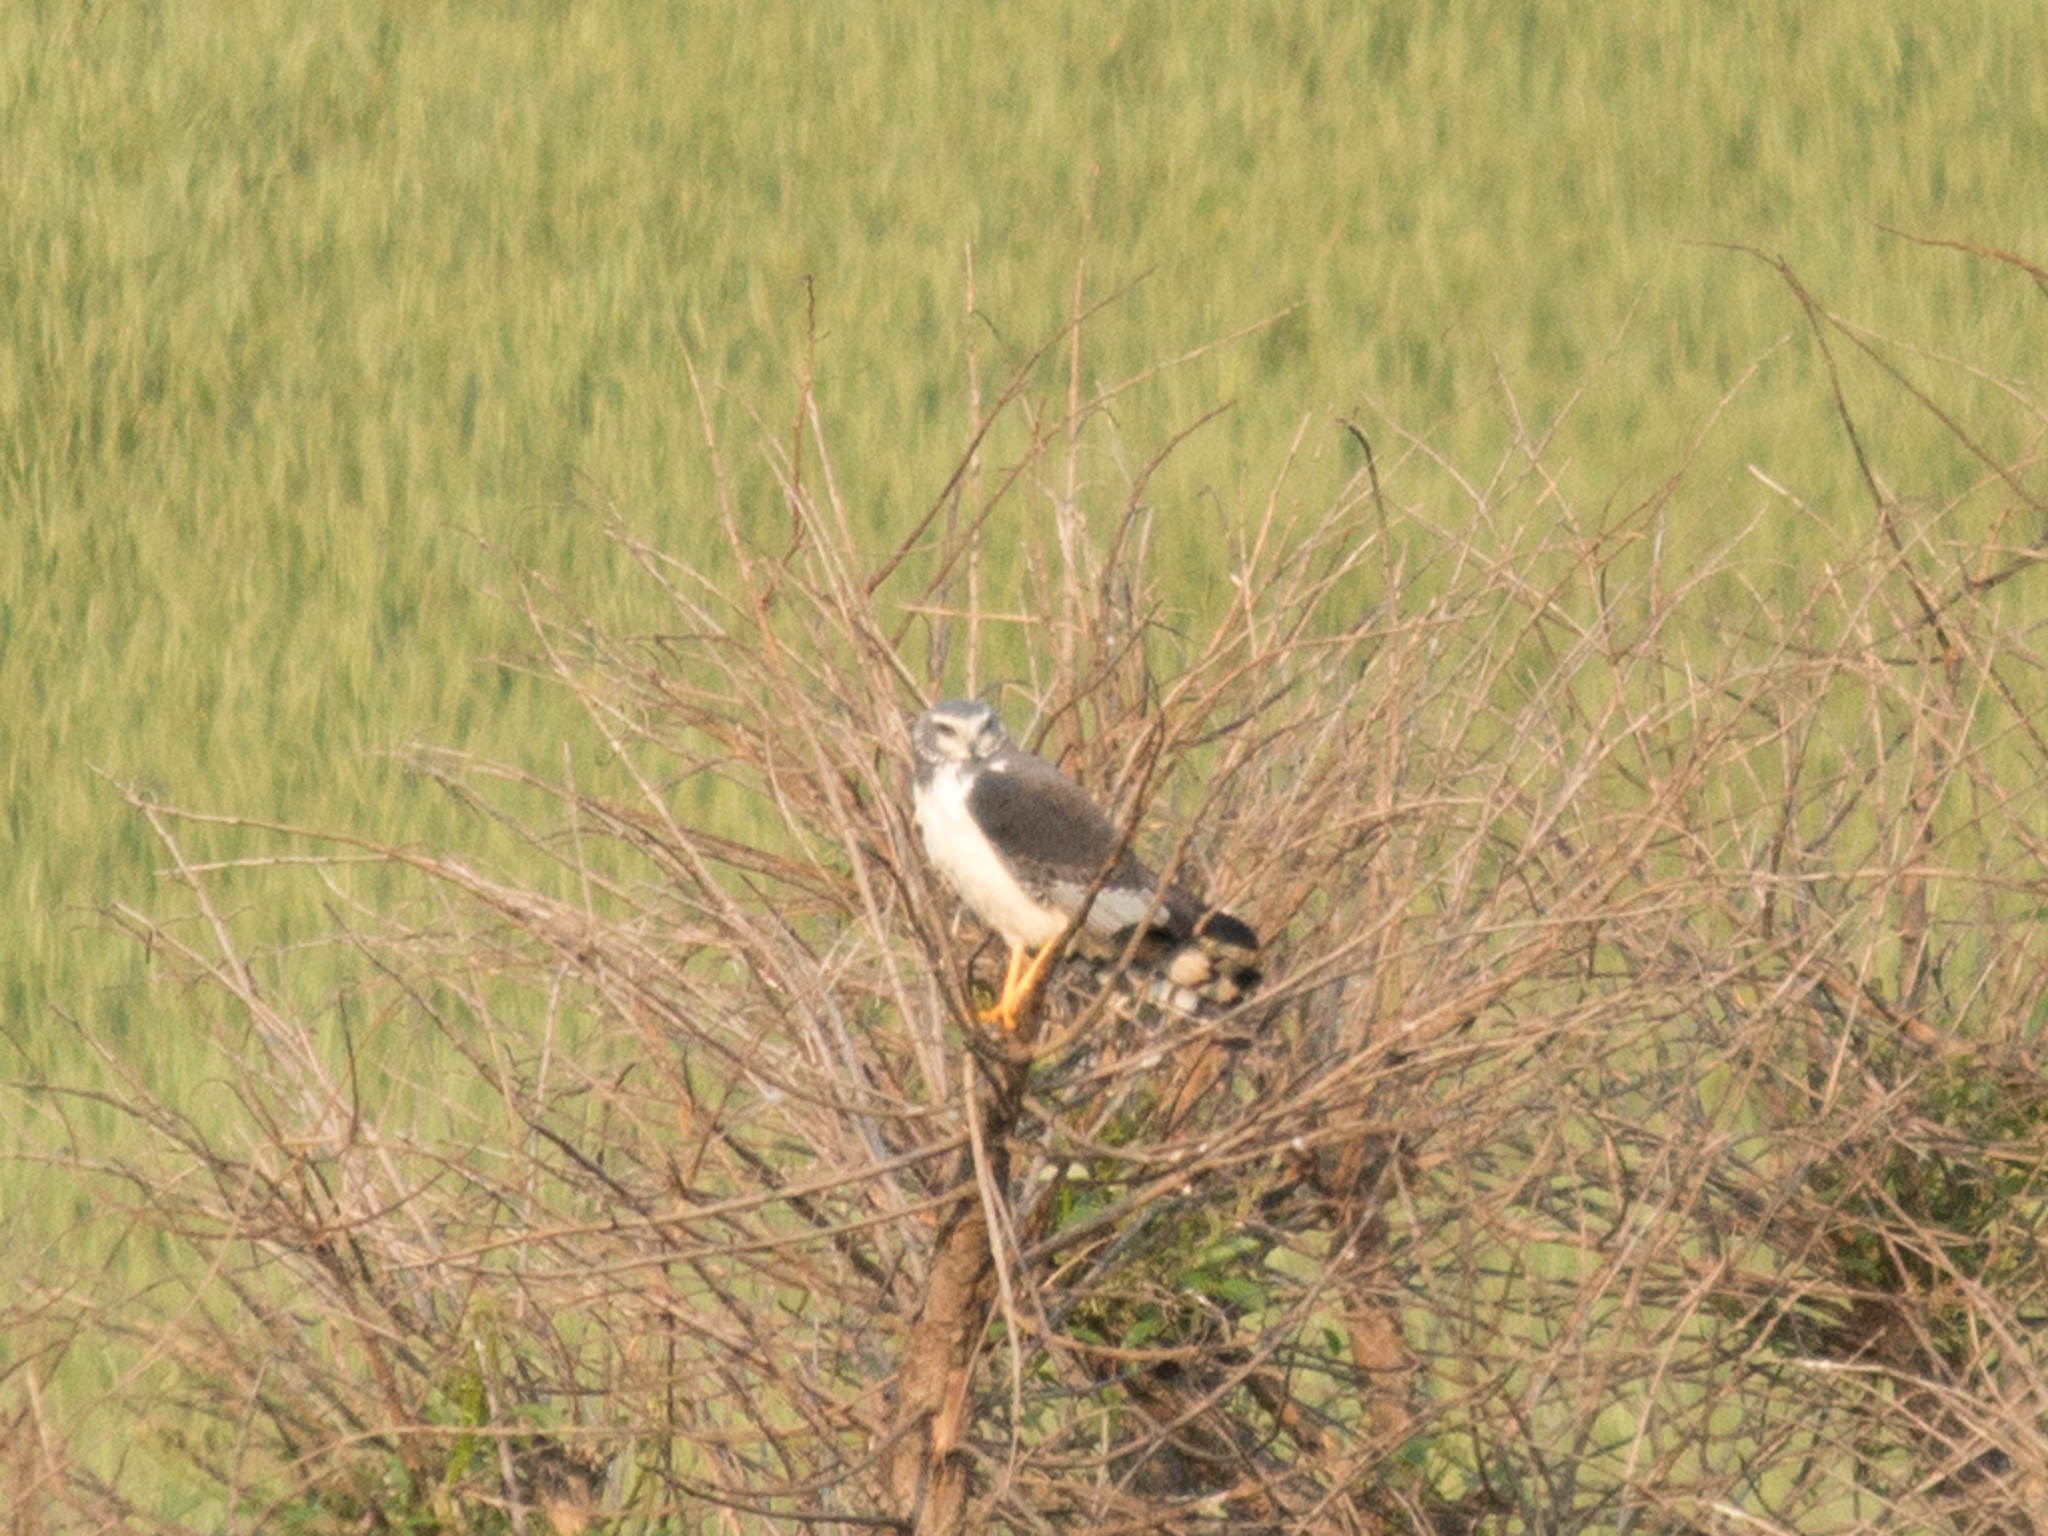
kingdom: Animalia
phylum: Chordata
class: Aves
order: Accipitriformes
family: Accipitridae
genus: Circus
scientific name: Circus buffoni
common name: Long-winged harrier
